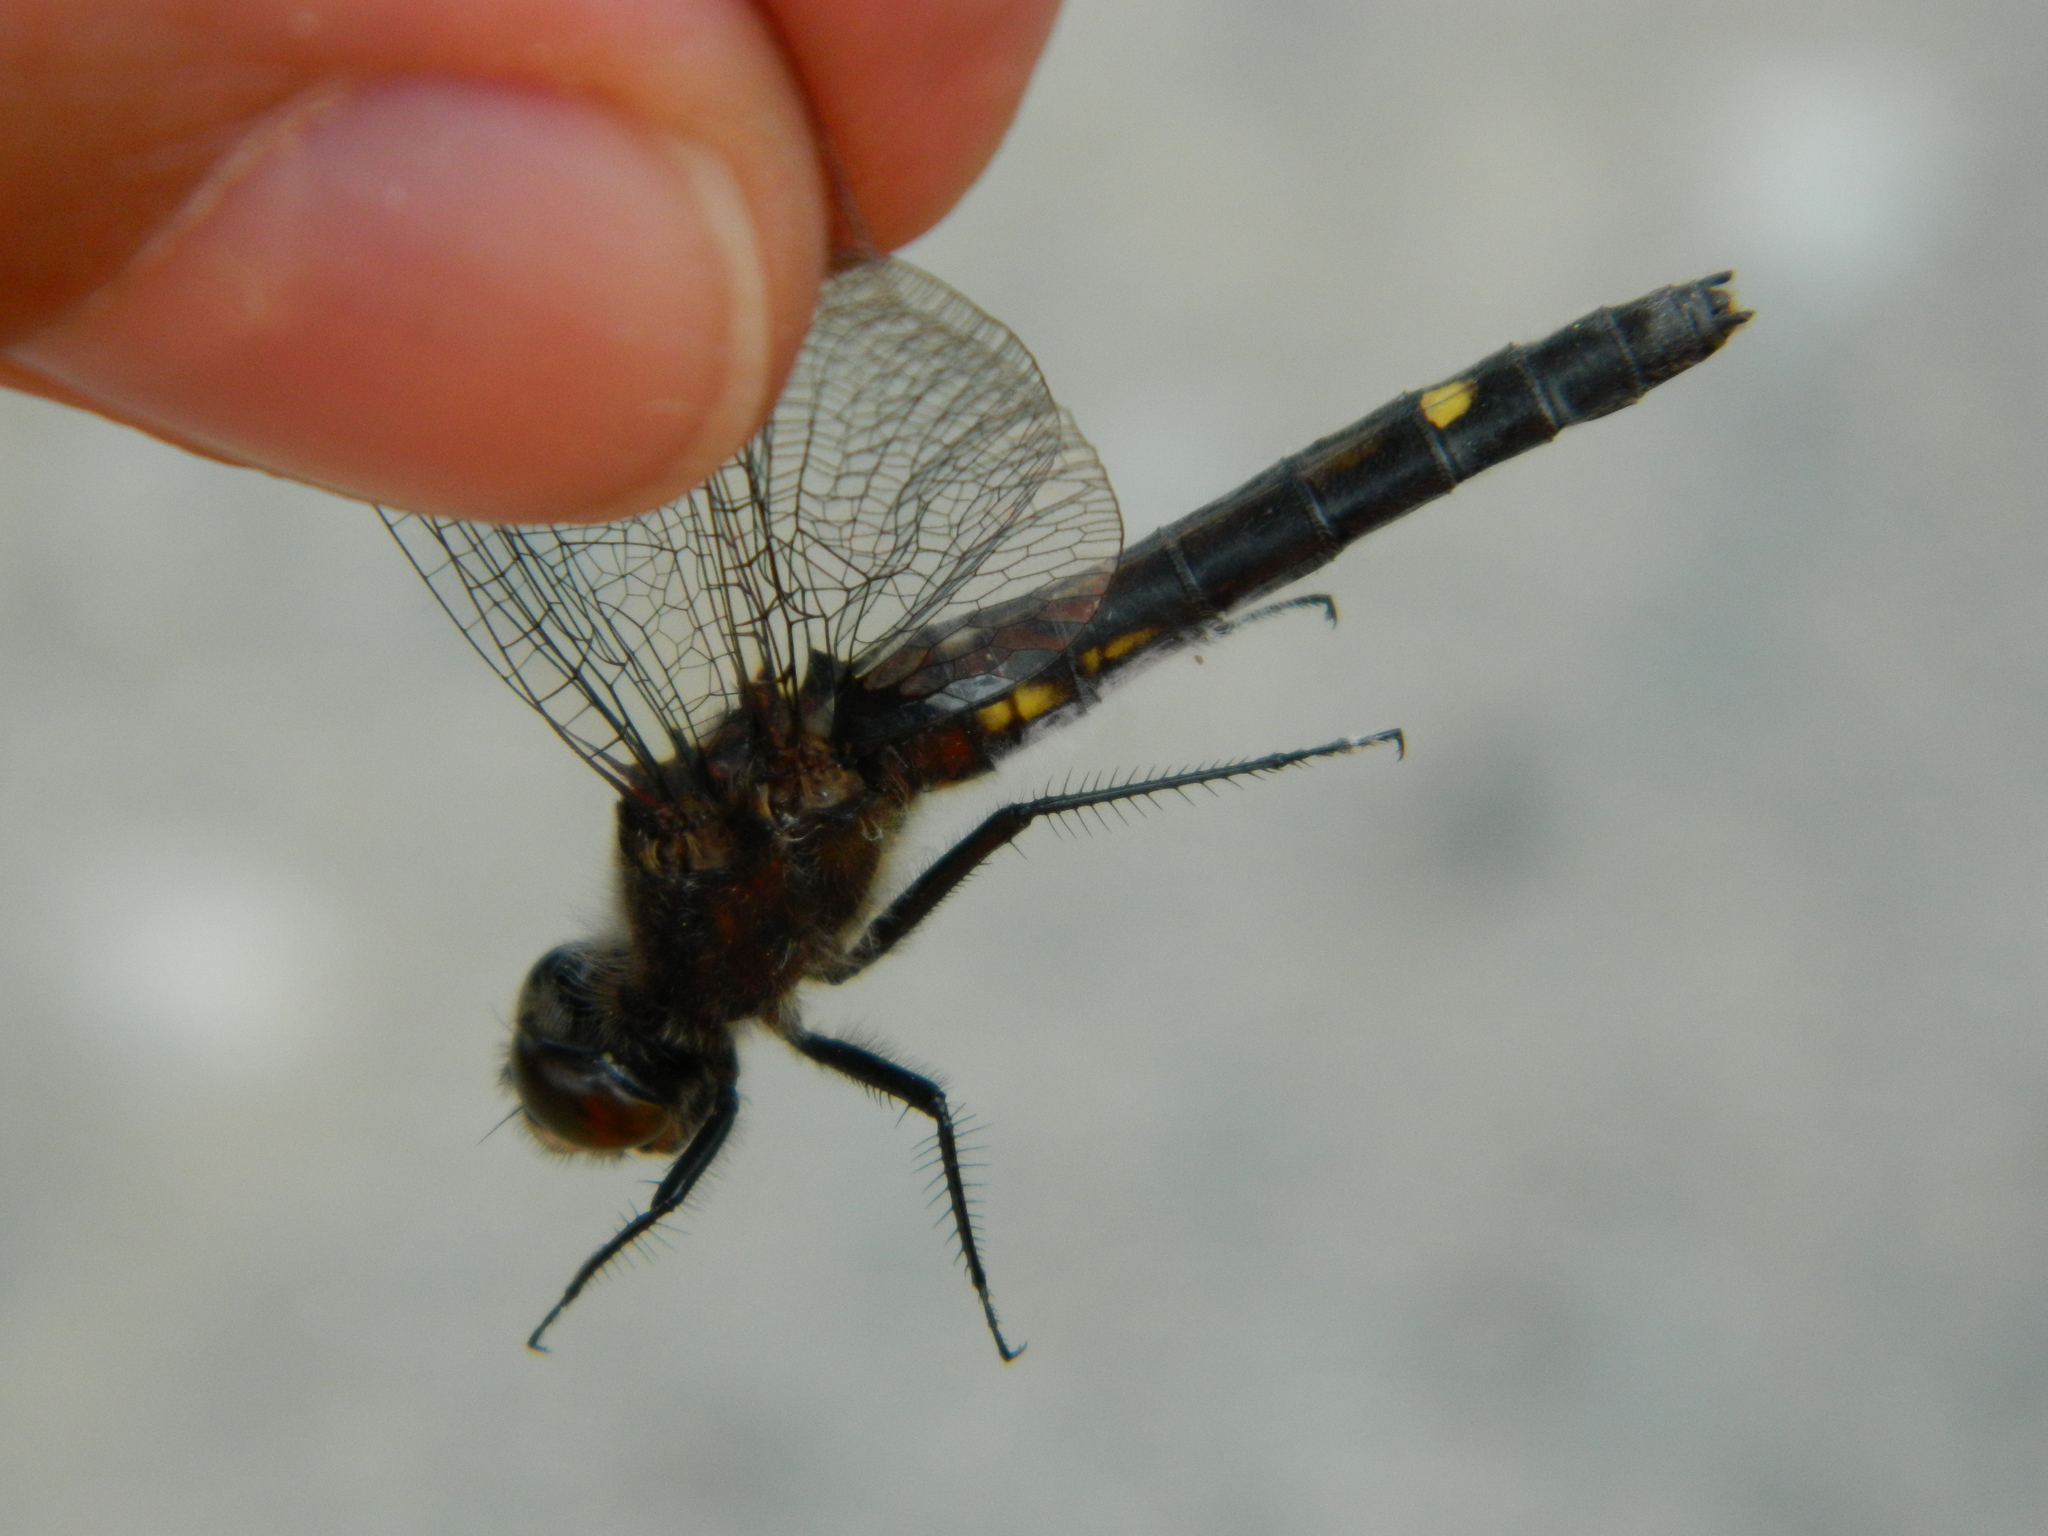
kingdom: Animalia
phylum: Arthropoda
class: Insecta
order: Odonata
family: Libellulidae
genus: Leucorrhinia
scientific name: Leucorrhinia intacta
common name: Dot-tailed whiteface
